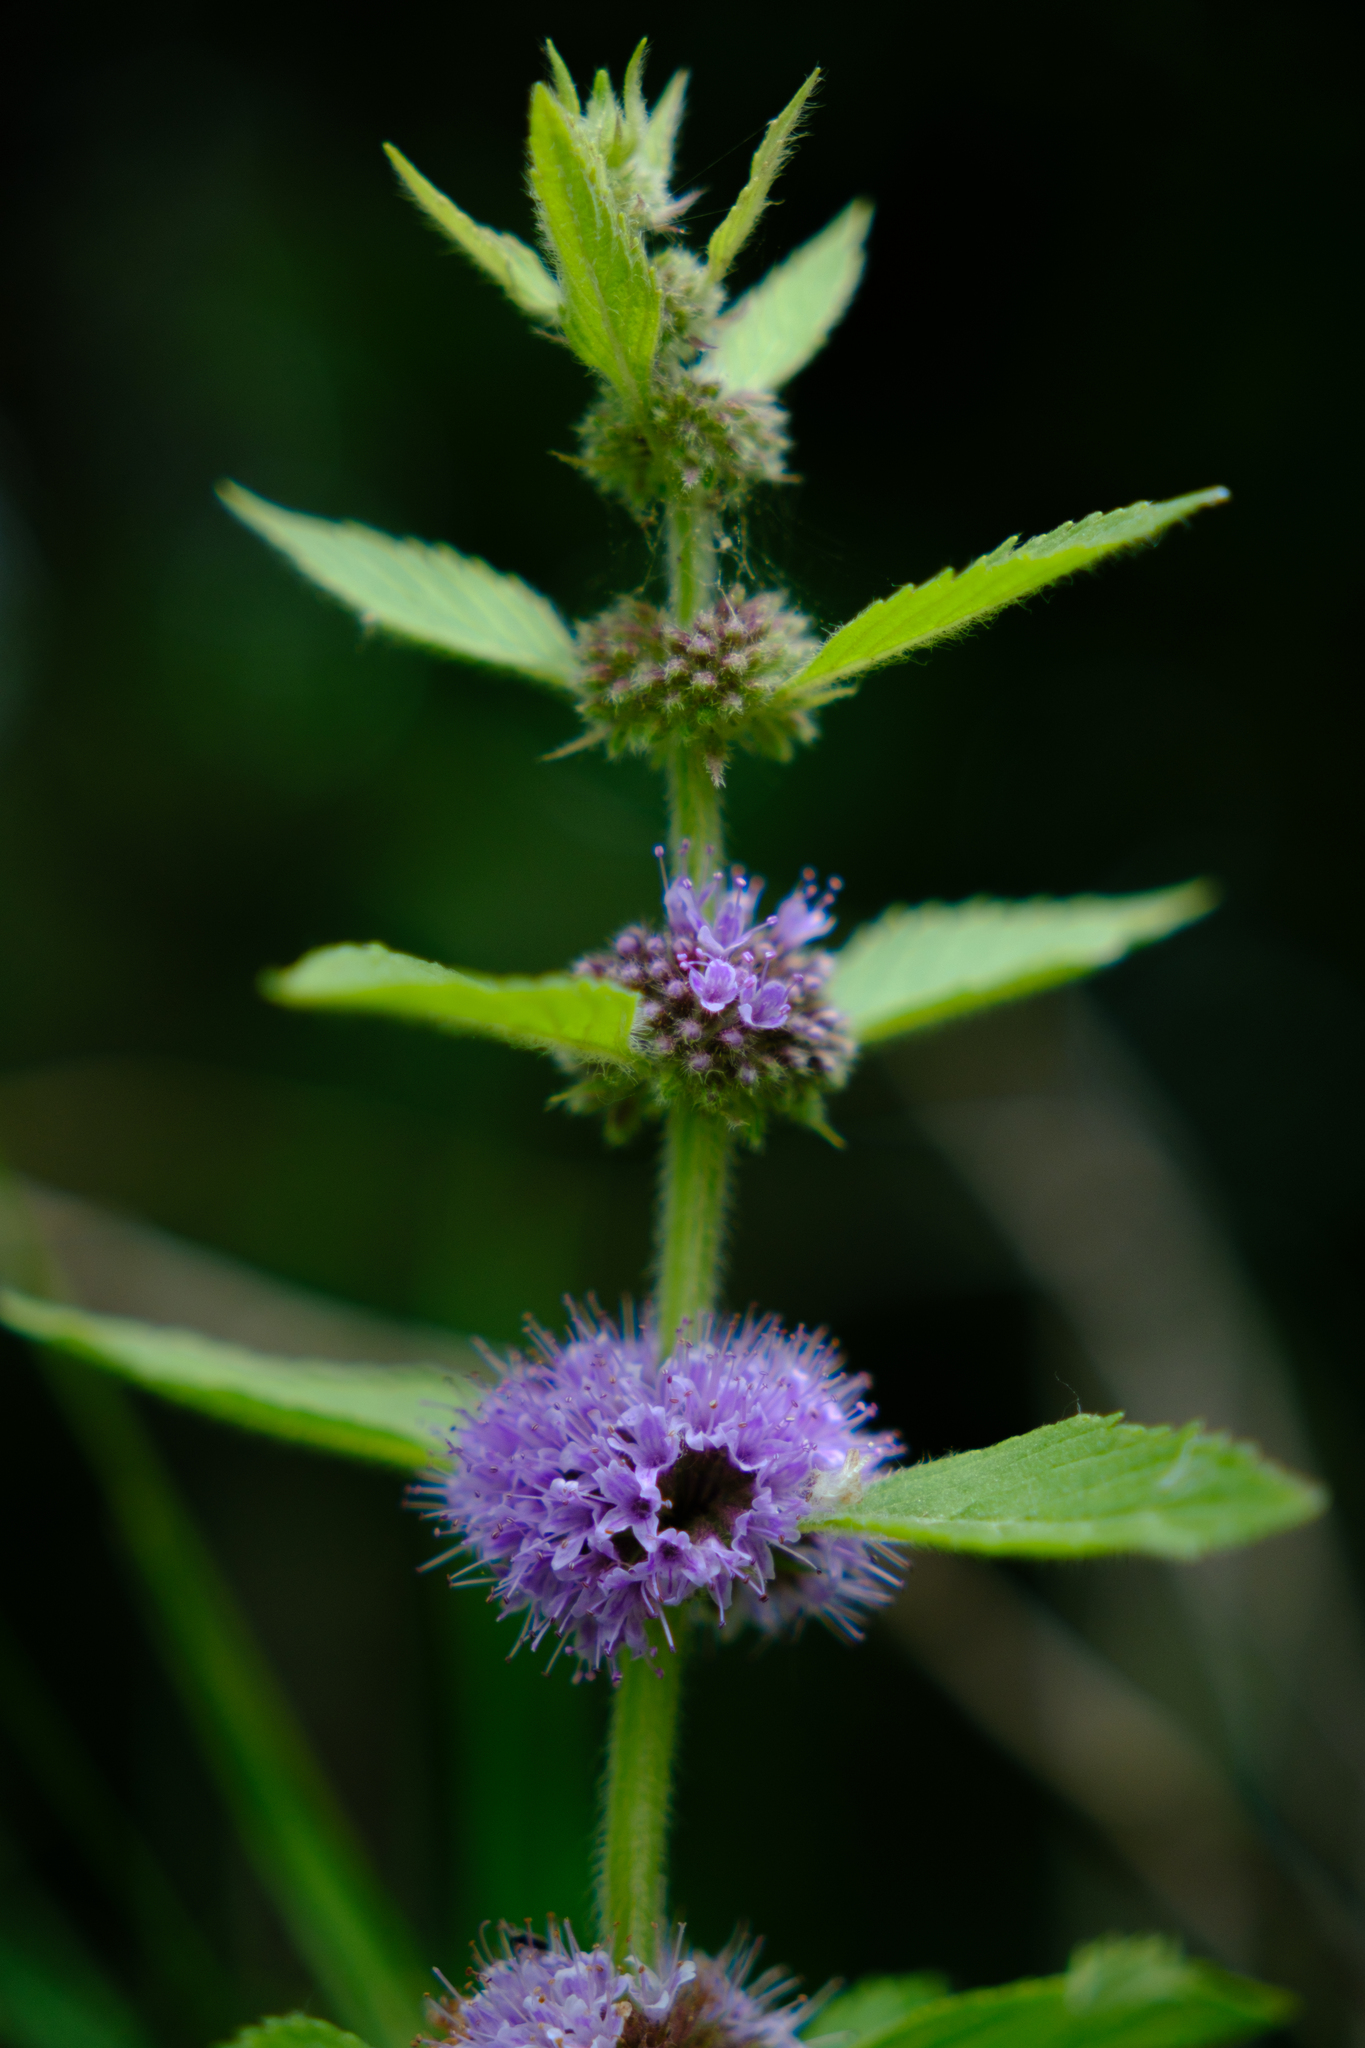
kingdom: Plantae
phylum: Tracheophyta
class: Magnoliopsida
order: Lamiales
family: Lamiaceae
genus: Mentha
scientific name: Mentha canadensis
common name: American corn mint
